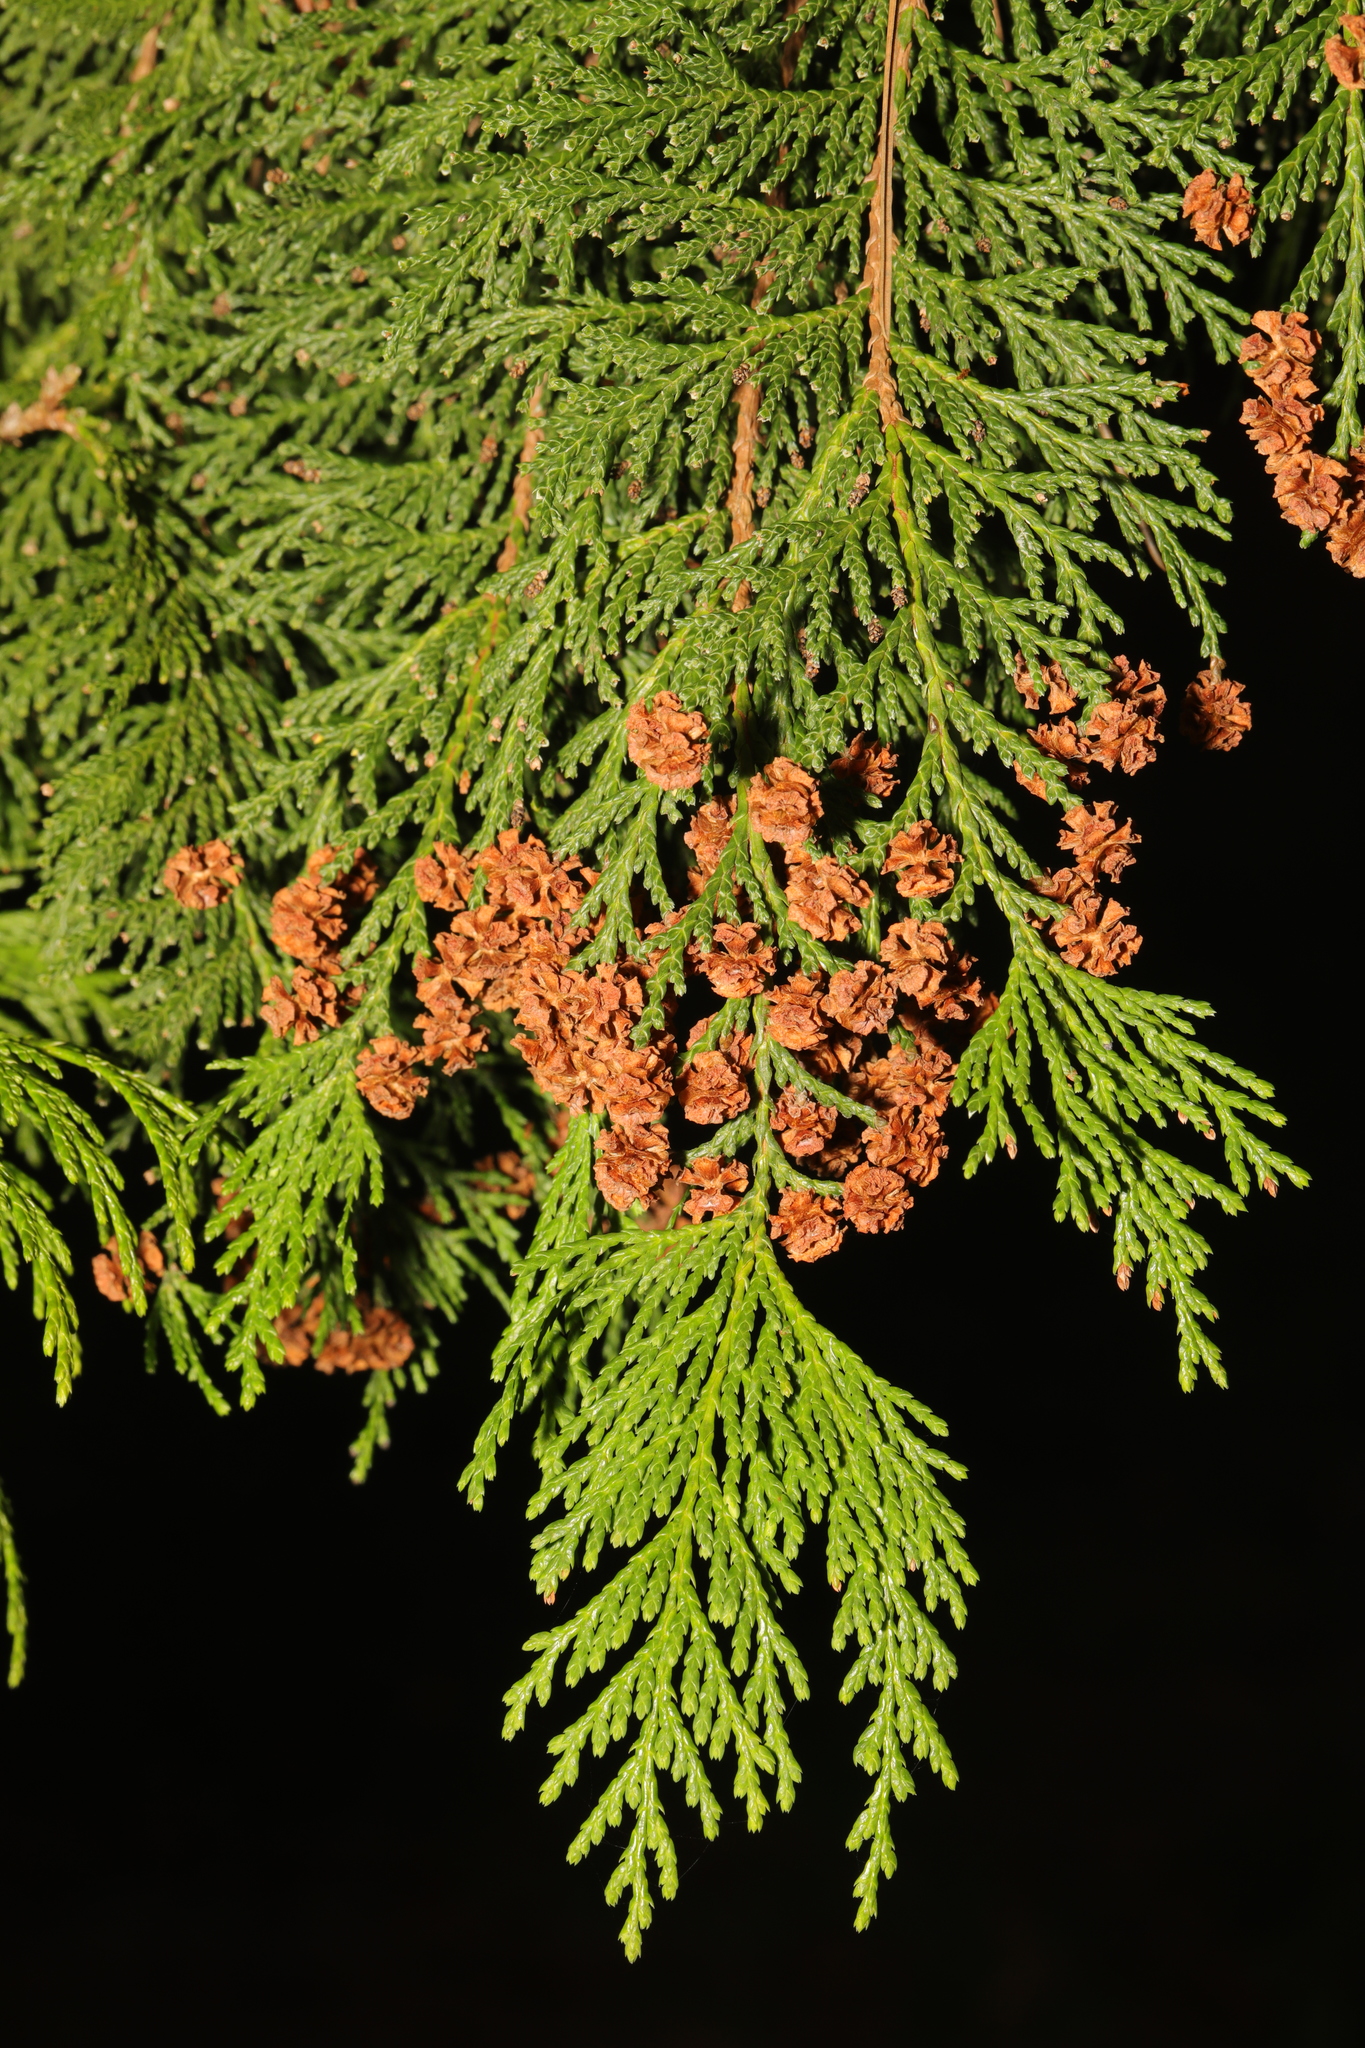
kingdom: Plantae
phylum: Tracheophyta
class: Pinopsida
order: Pinales
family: Cupressaceae
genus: Chamaecyparis
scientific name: Chamaecyparis lawsoniana
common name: Lawson's cypress
